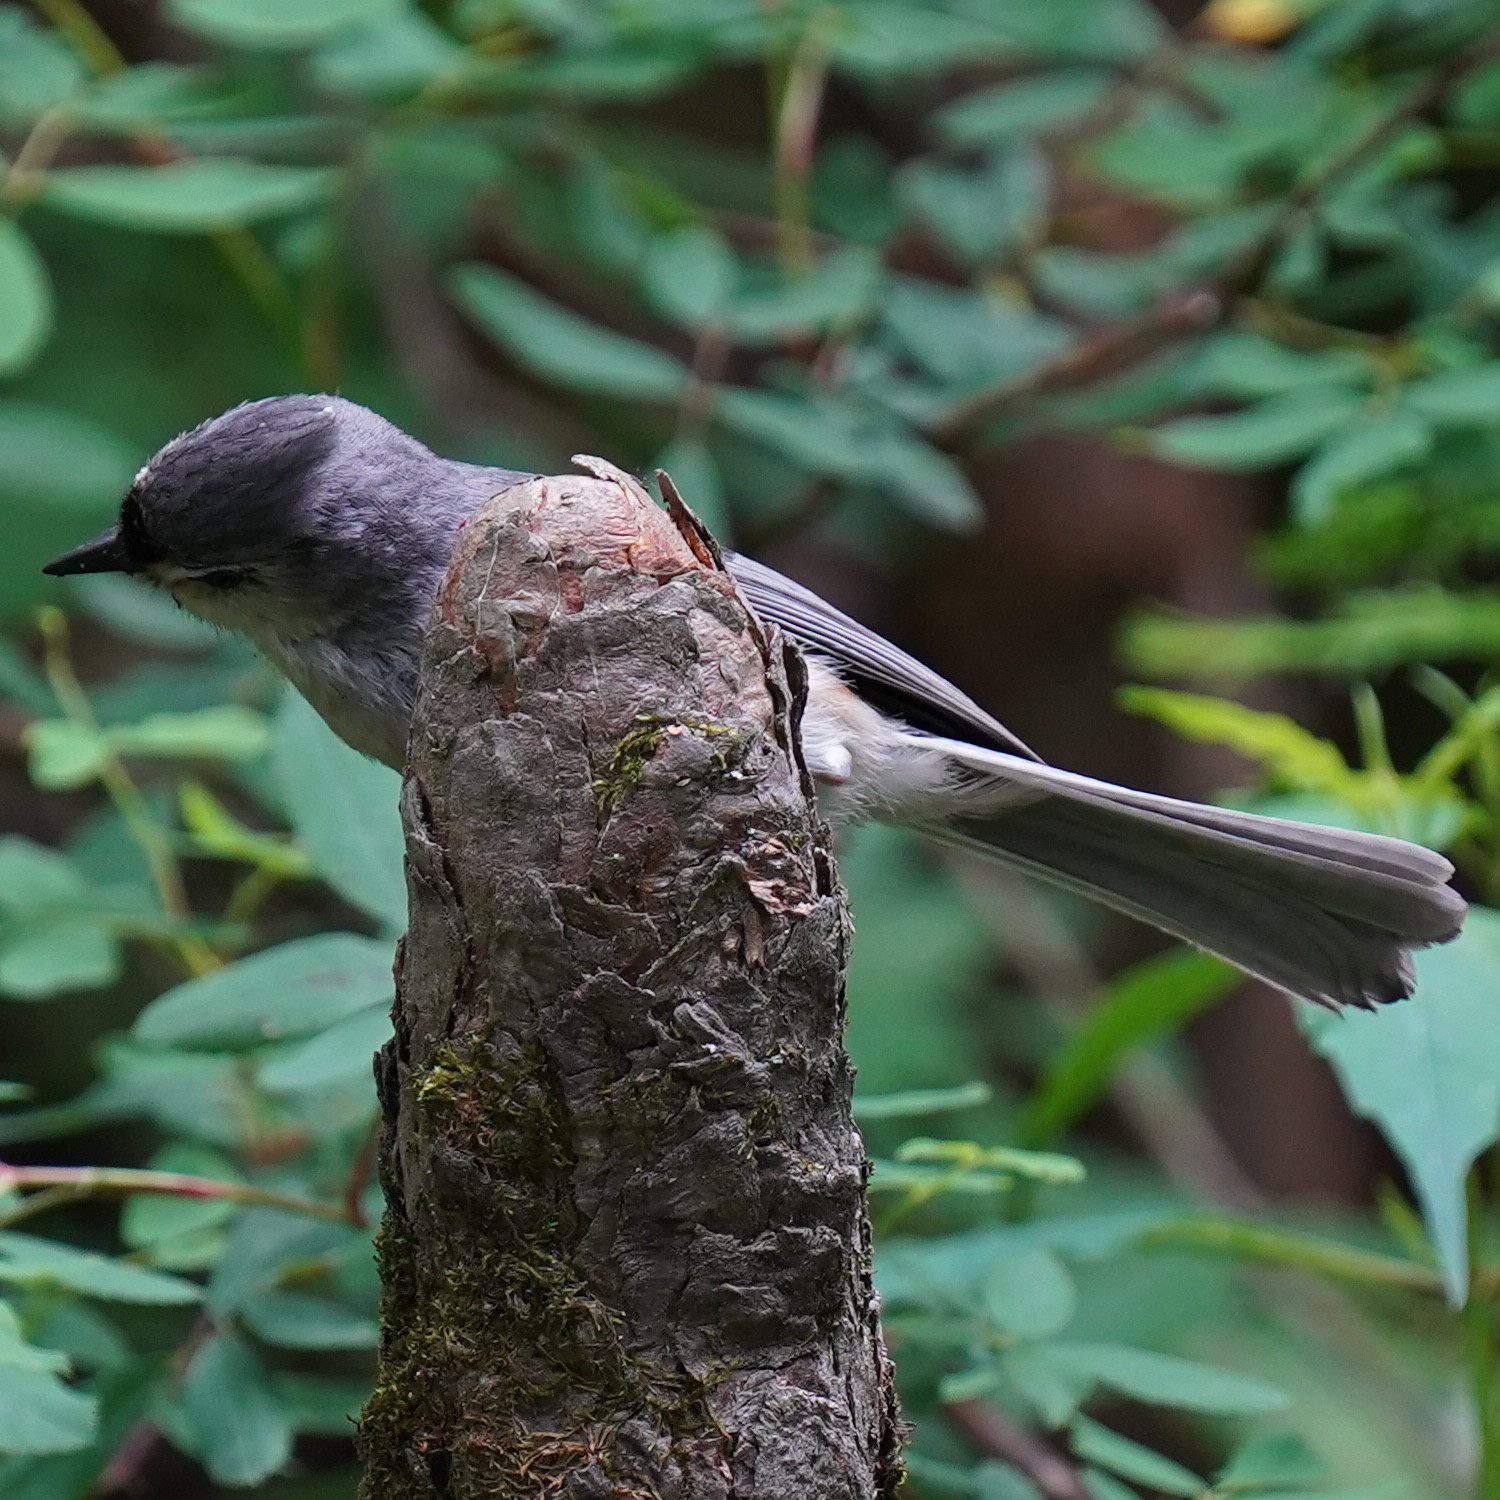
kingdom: Animalia
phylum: Chordata
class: Aves
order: Passeriformes
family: Paridae
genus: Baeolophus
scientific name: Baeolophus bicolor
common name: Tufted titmouse
